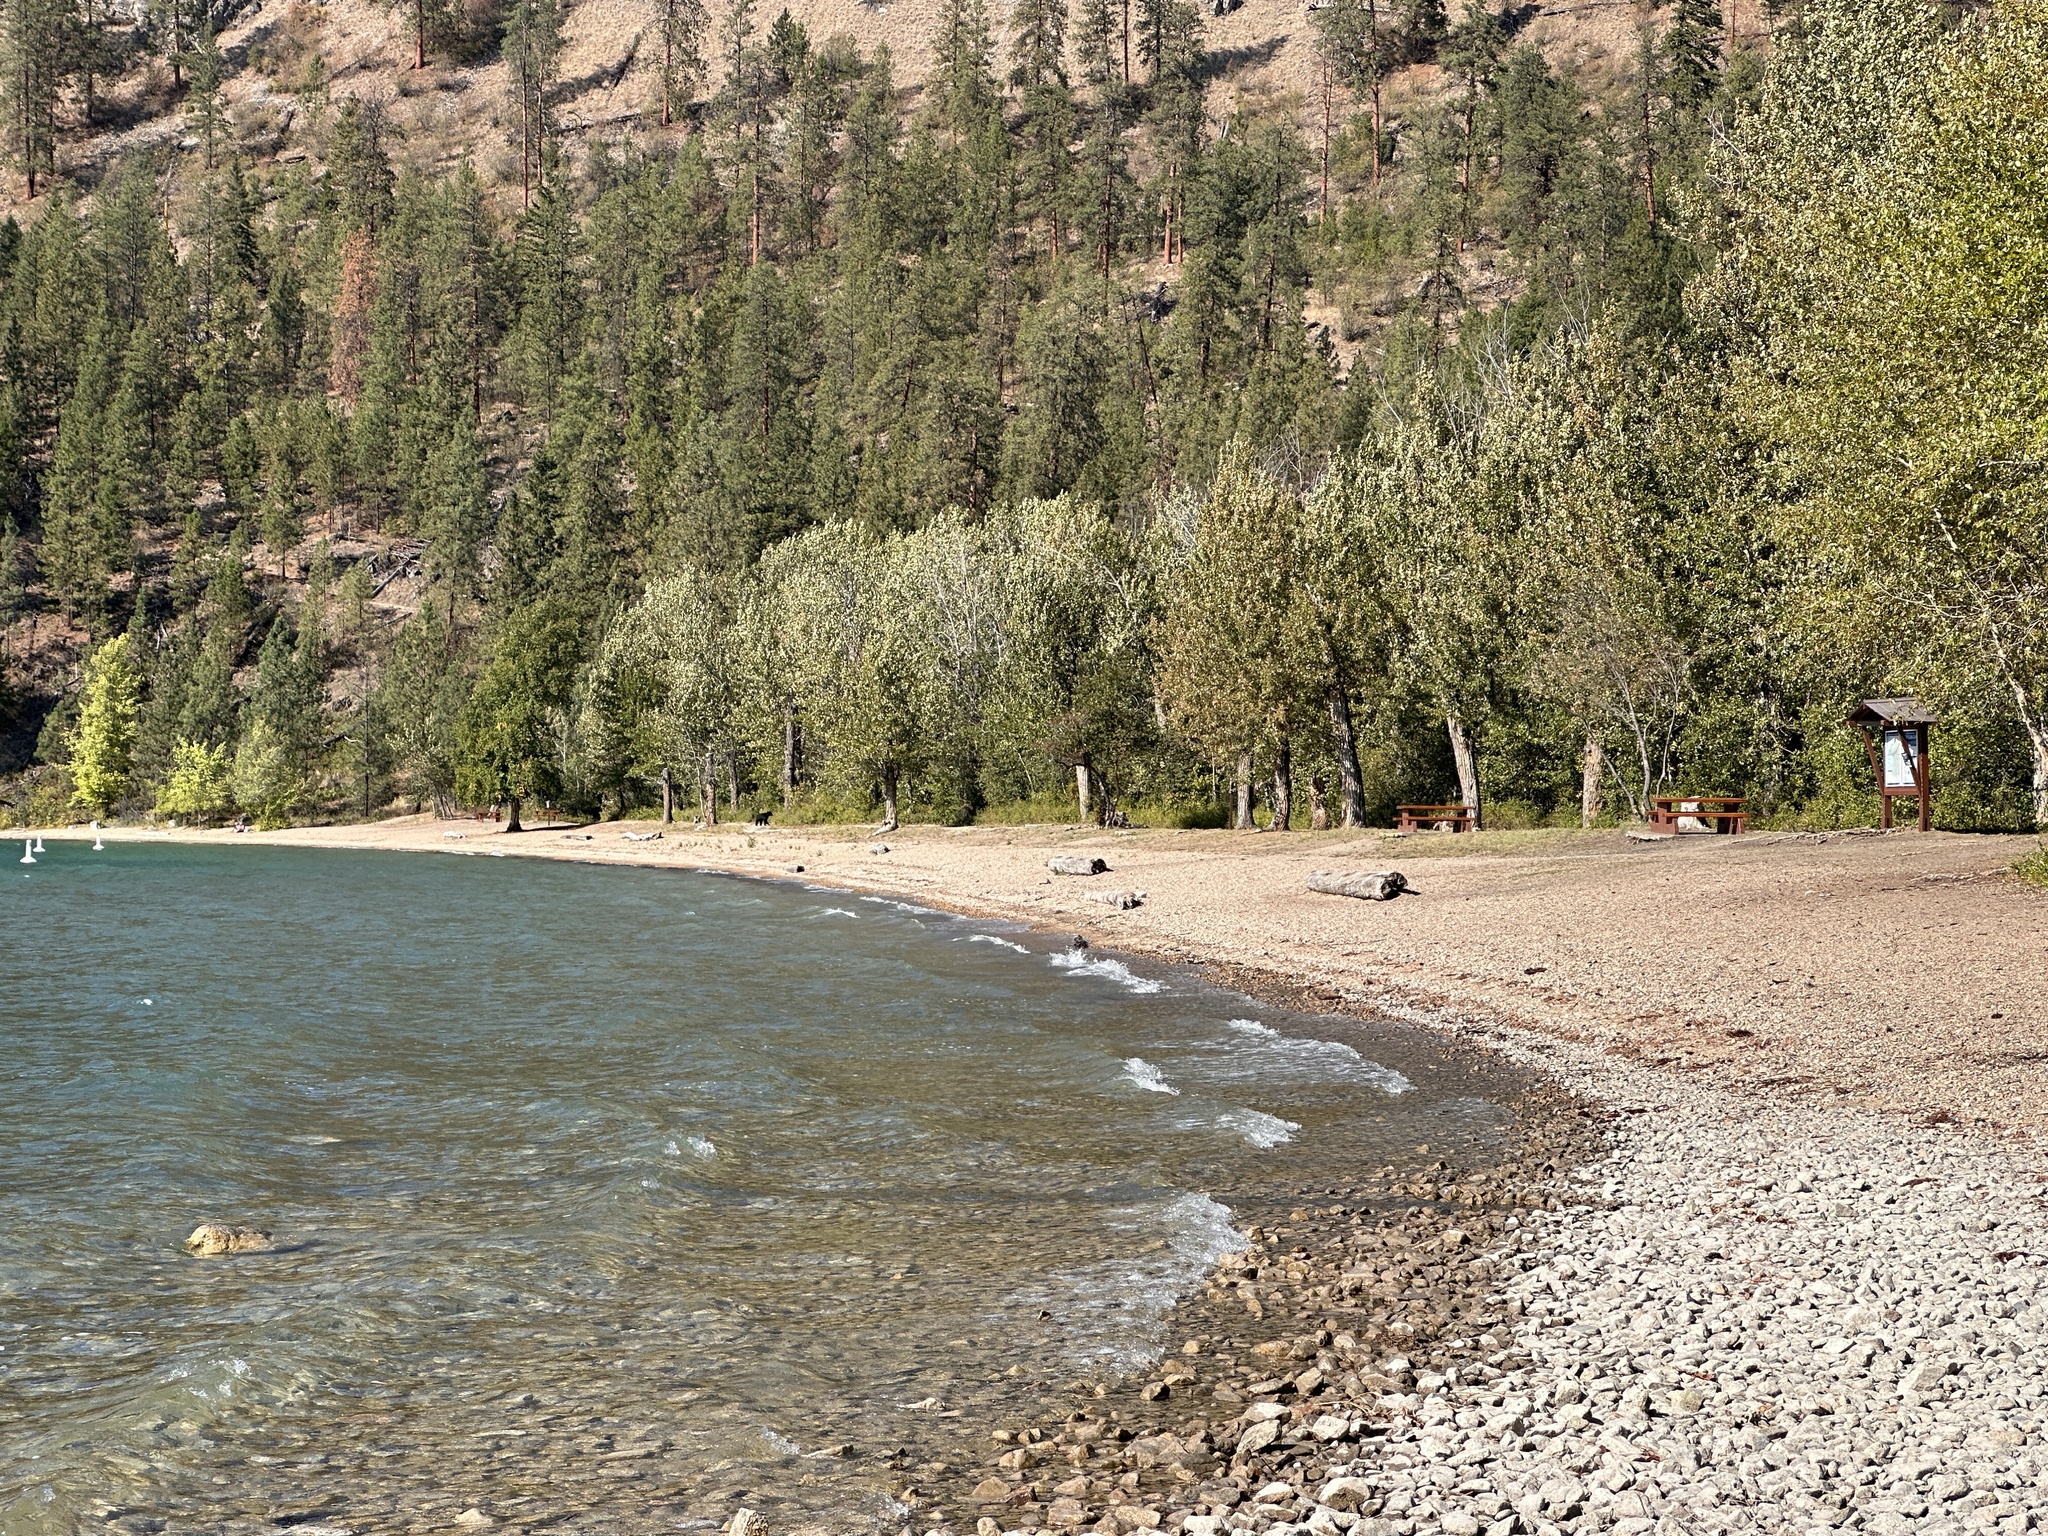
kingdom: Animalia
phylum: Chordata
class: Mammalia
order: Carnivora
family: Ursidae
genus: Ursus
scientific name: Ursus americanus
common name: American black bear
